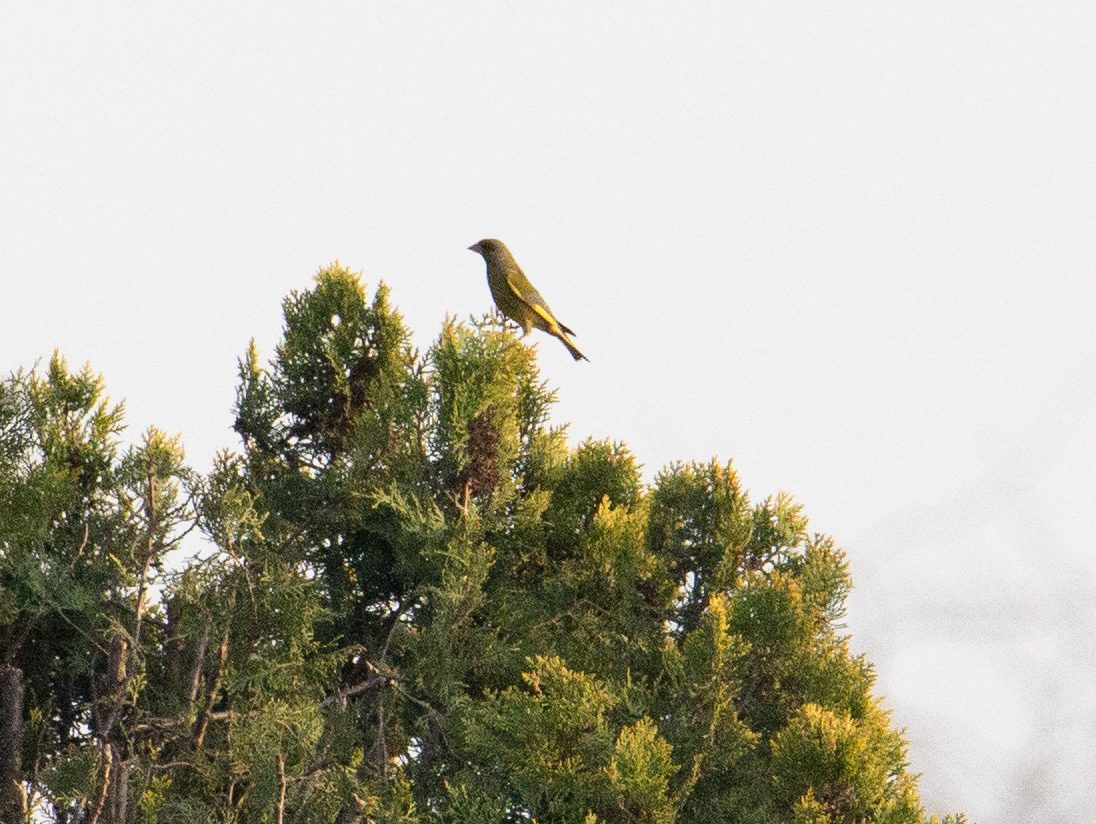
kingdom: Plantae
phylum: Tracheophyta
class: Liliopsida
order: Poales
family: Poaceae
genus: Chloris
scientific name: Chloris chloris
